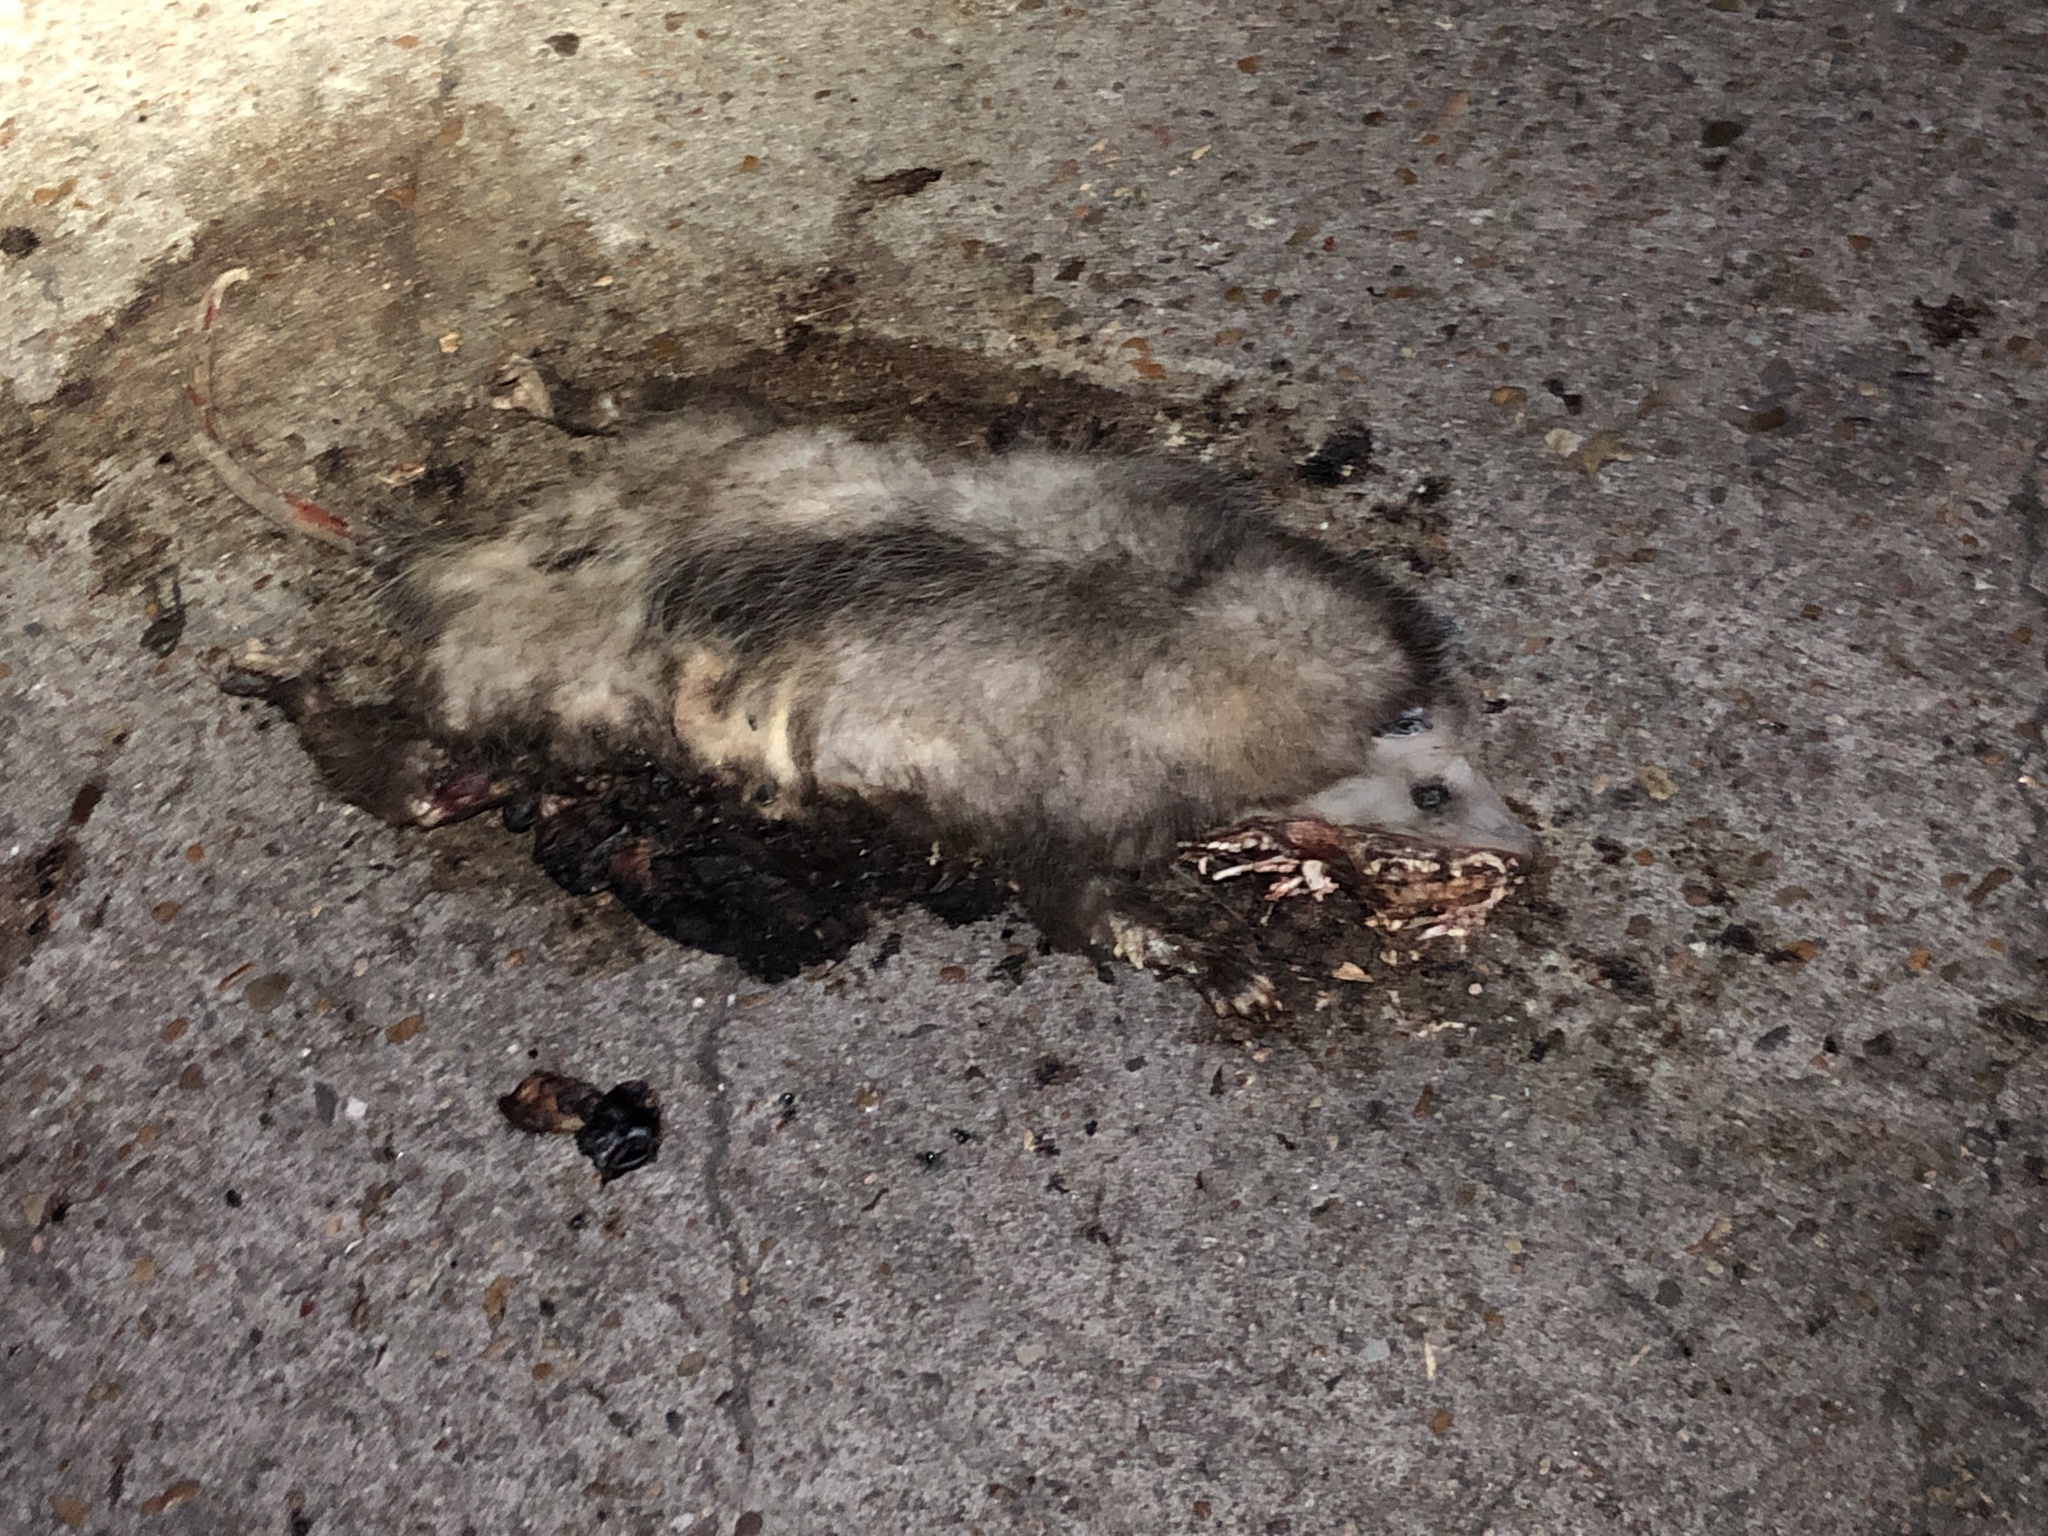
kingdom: Animalia
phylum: Chordata
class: Mammalia
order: Didelphimorphia
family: Didelphidae
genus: Didelphis
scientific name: Didelphis virginiana
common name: Virginia opossum
